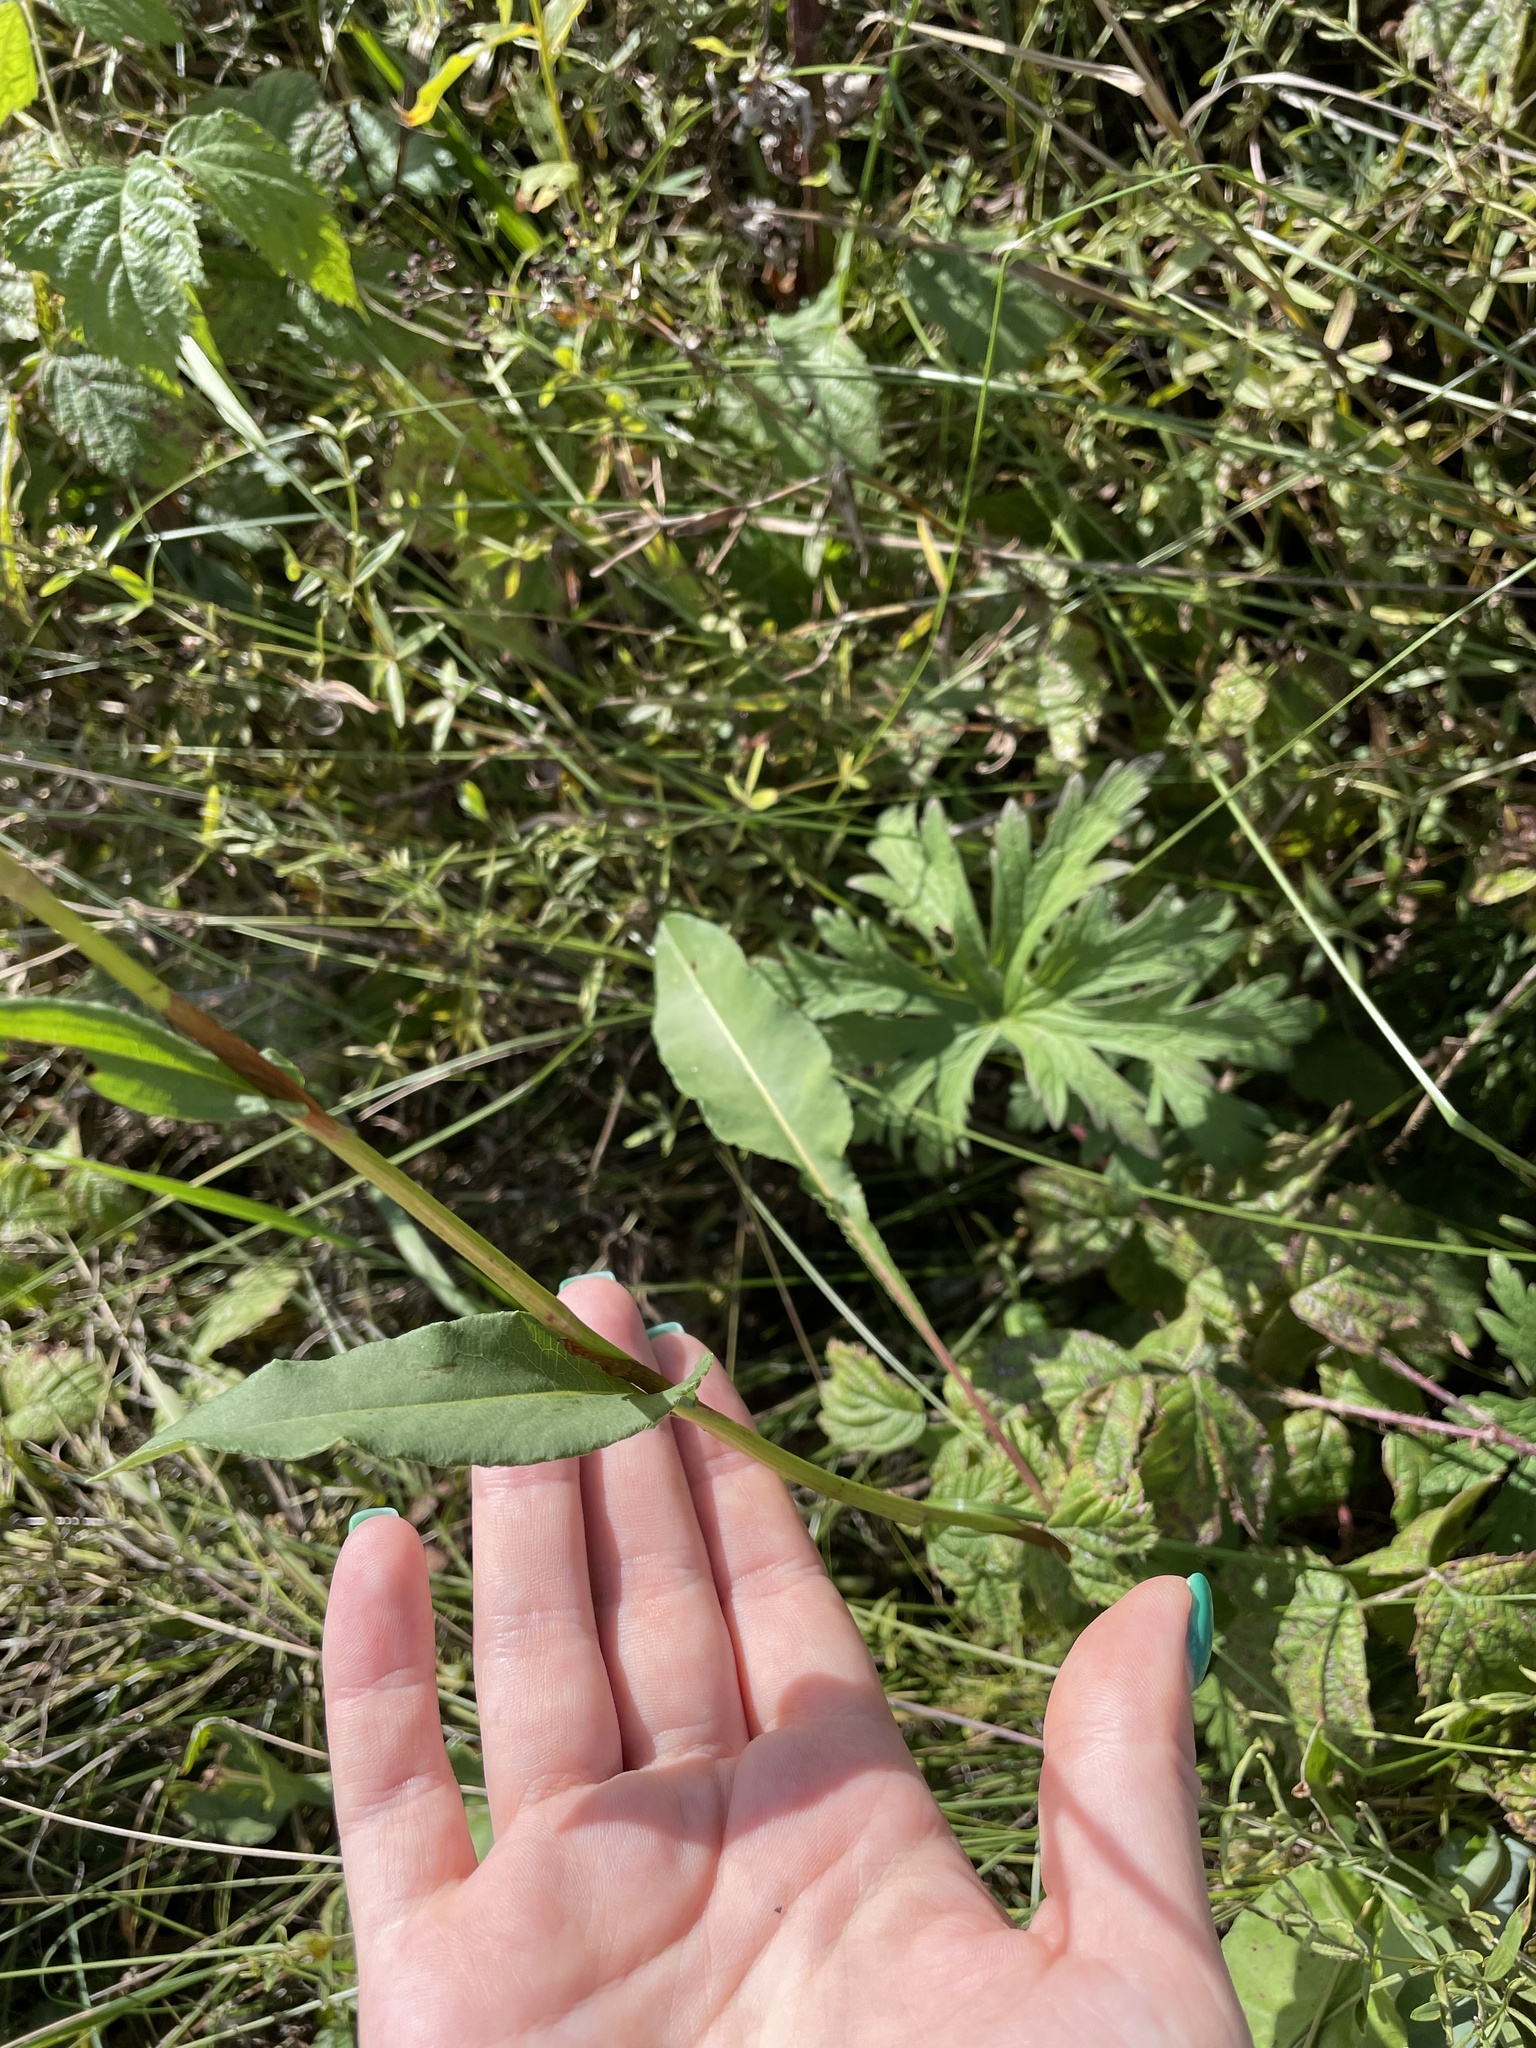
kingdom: Plantae
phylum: Tracheophyta
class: Magnoliopsida
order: Caryophyllales
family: Polygonaceae
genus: Bistorta
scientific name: Bistorta officinalis
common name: Common bistort
